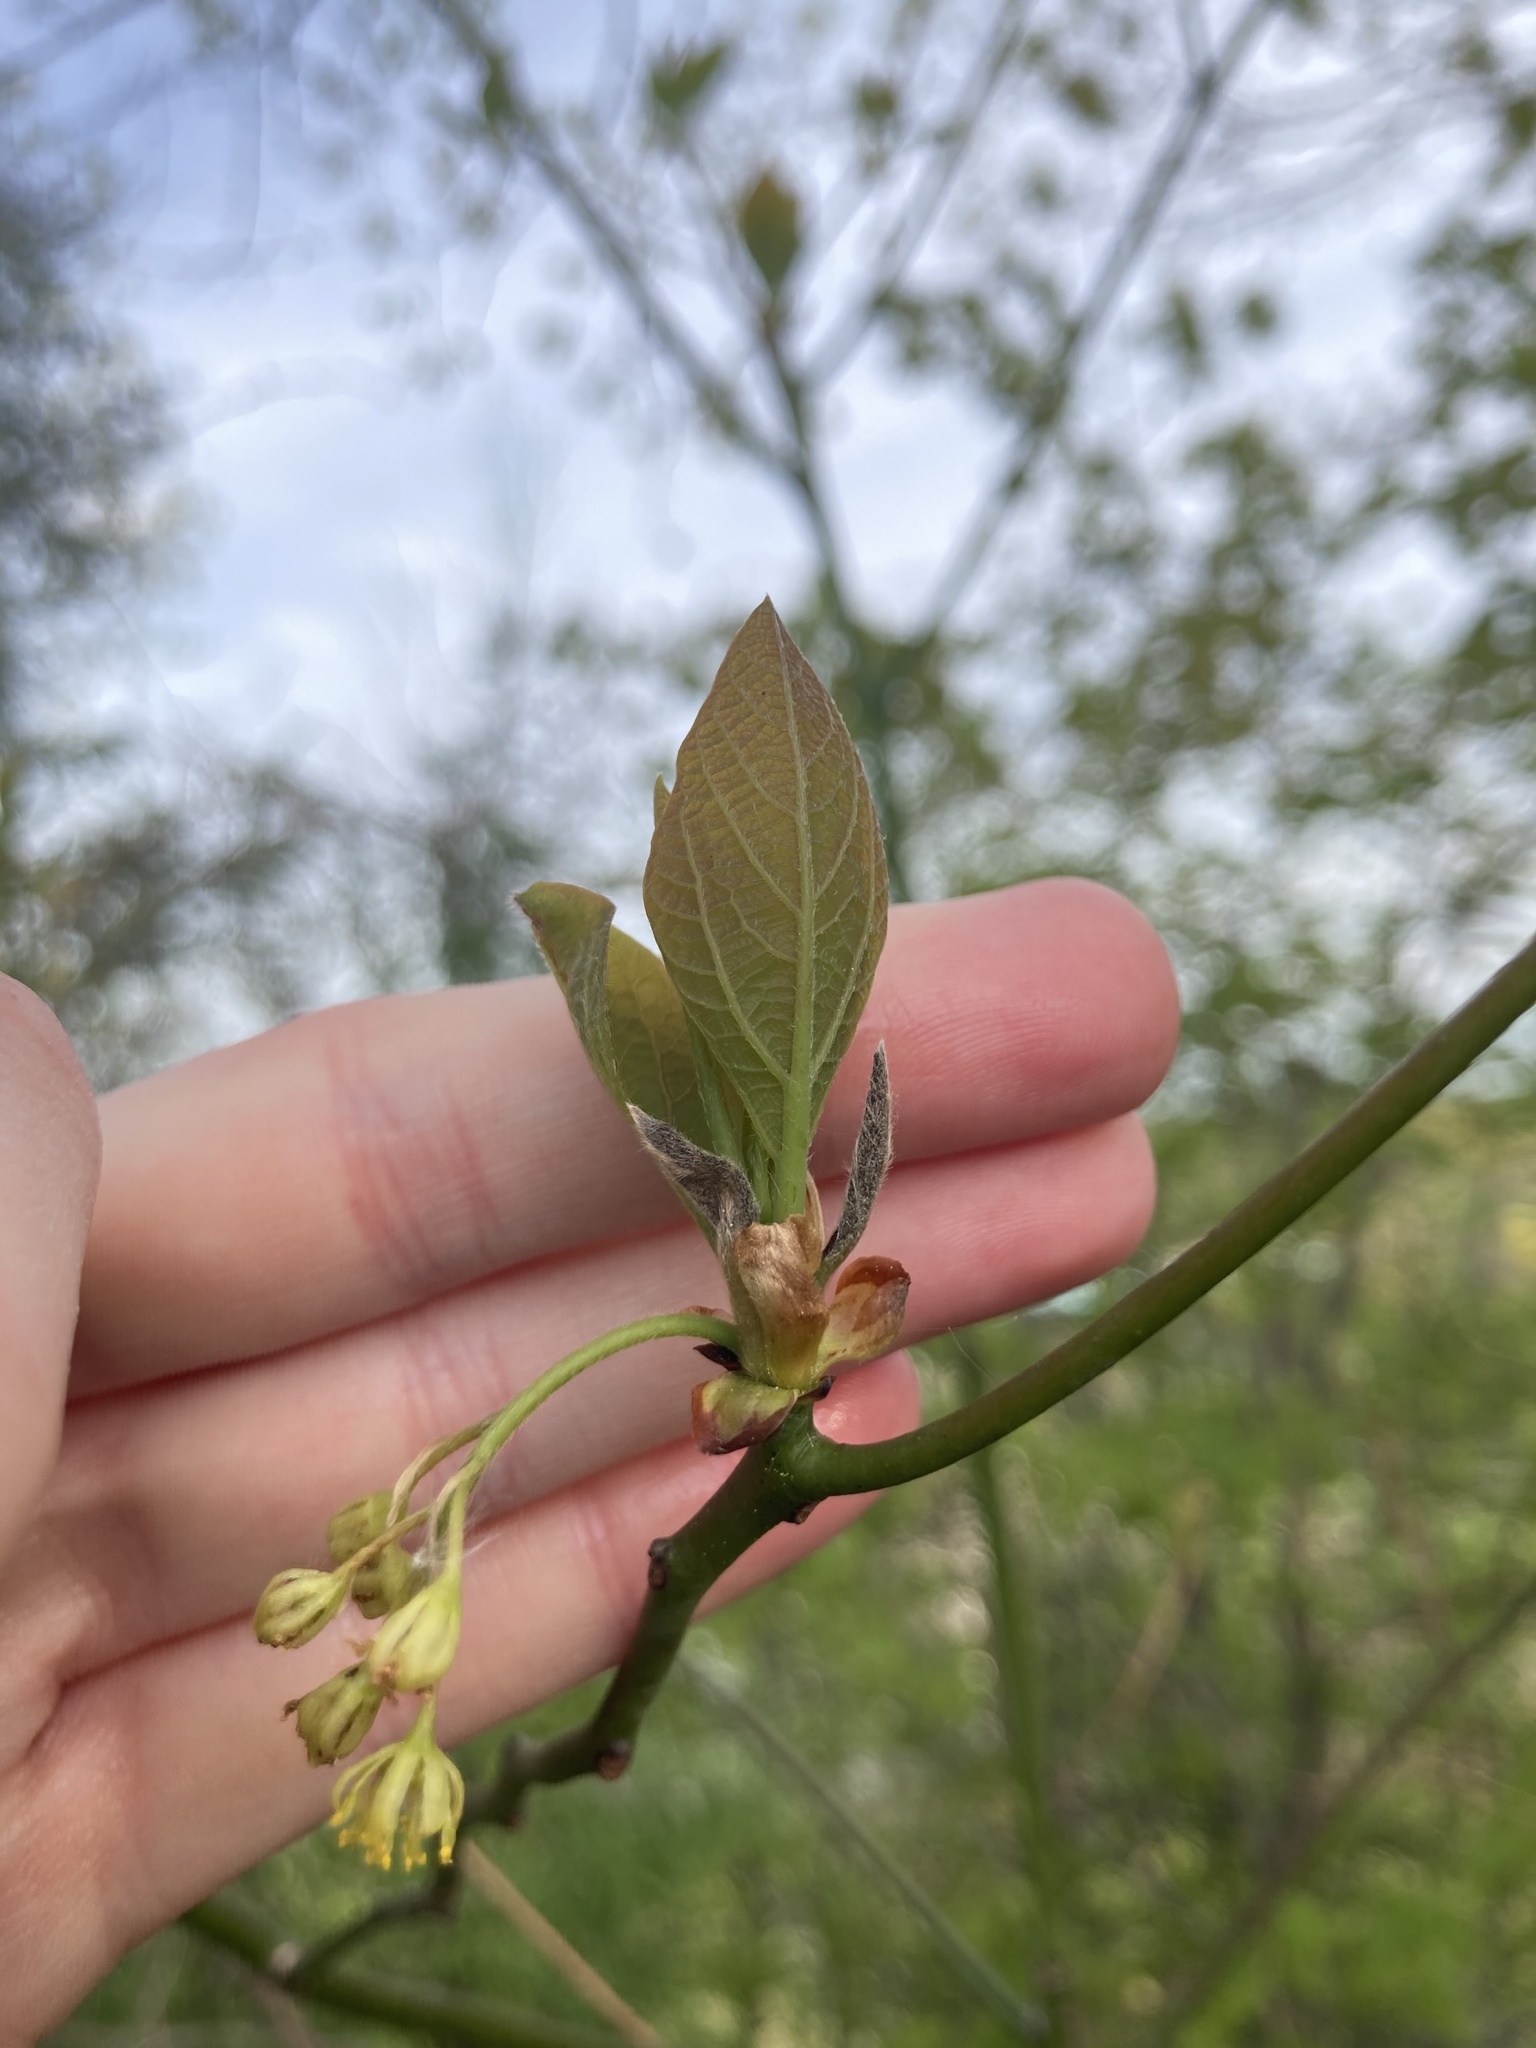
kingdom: Plantae
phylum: Tracheophyta
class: Magnoliopsida
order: Laurales
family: Lauraceae
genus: Sassafras
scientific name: Sassafras albidum
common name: Sassafras
